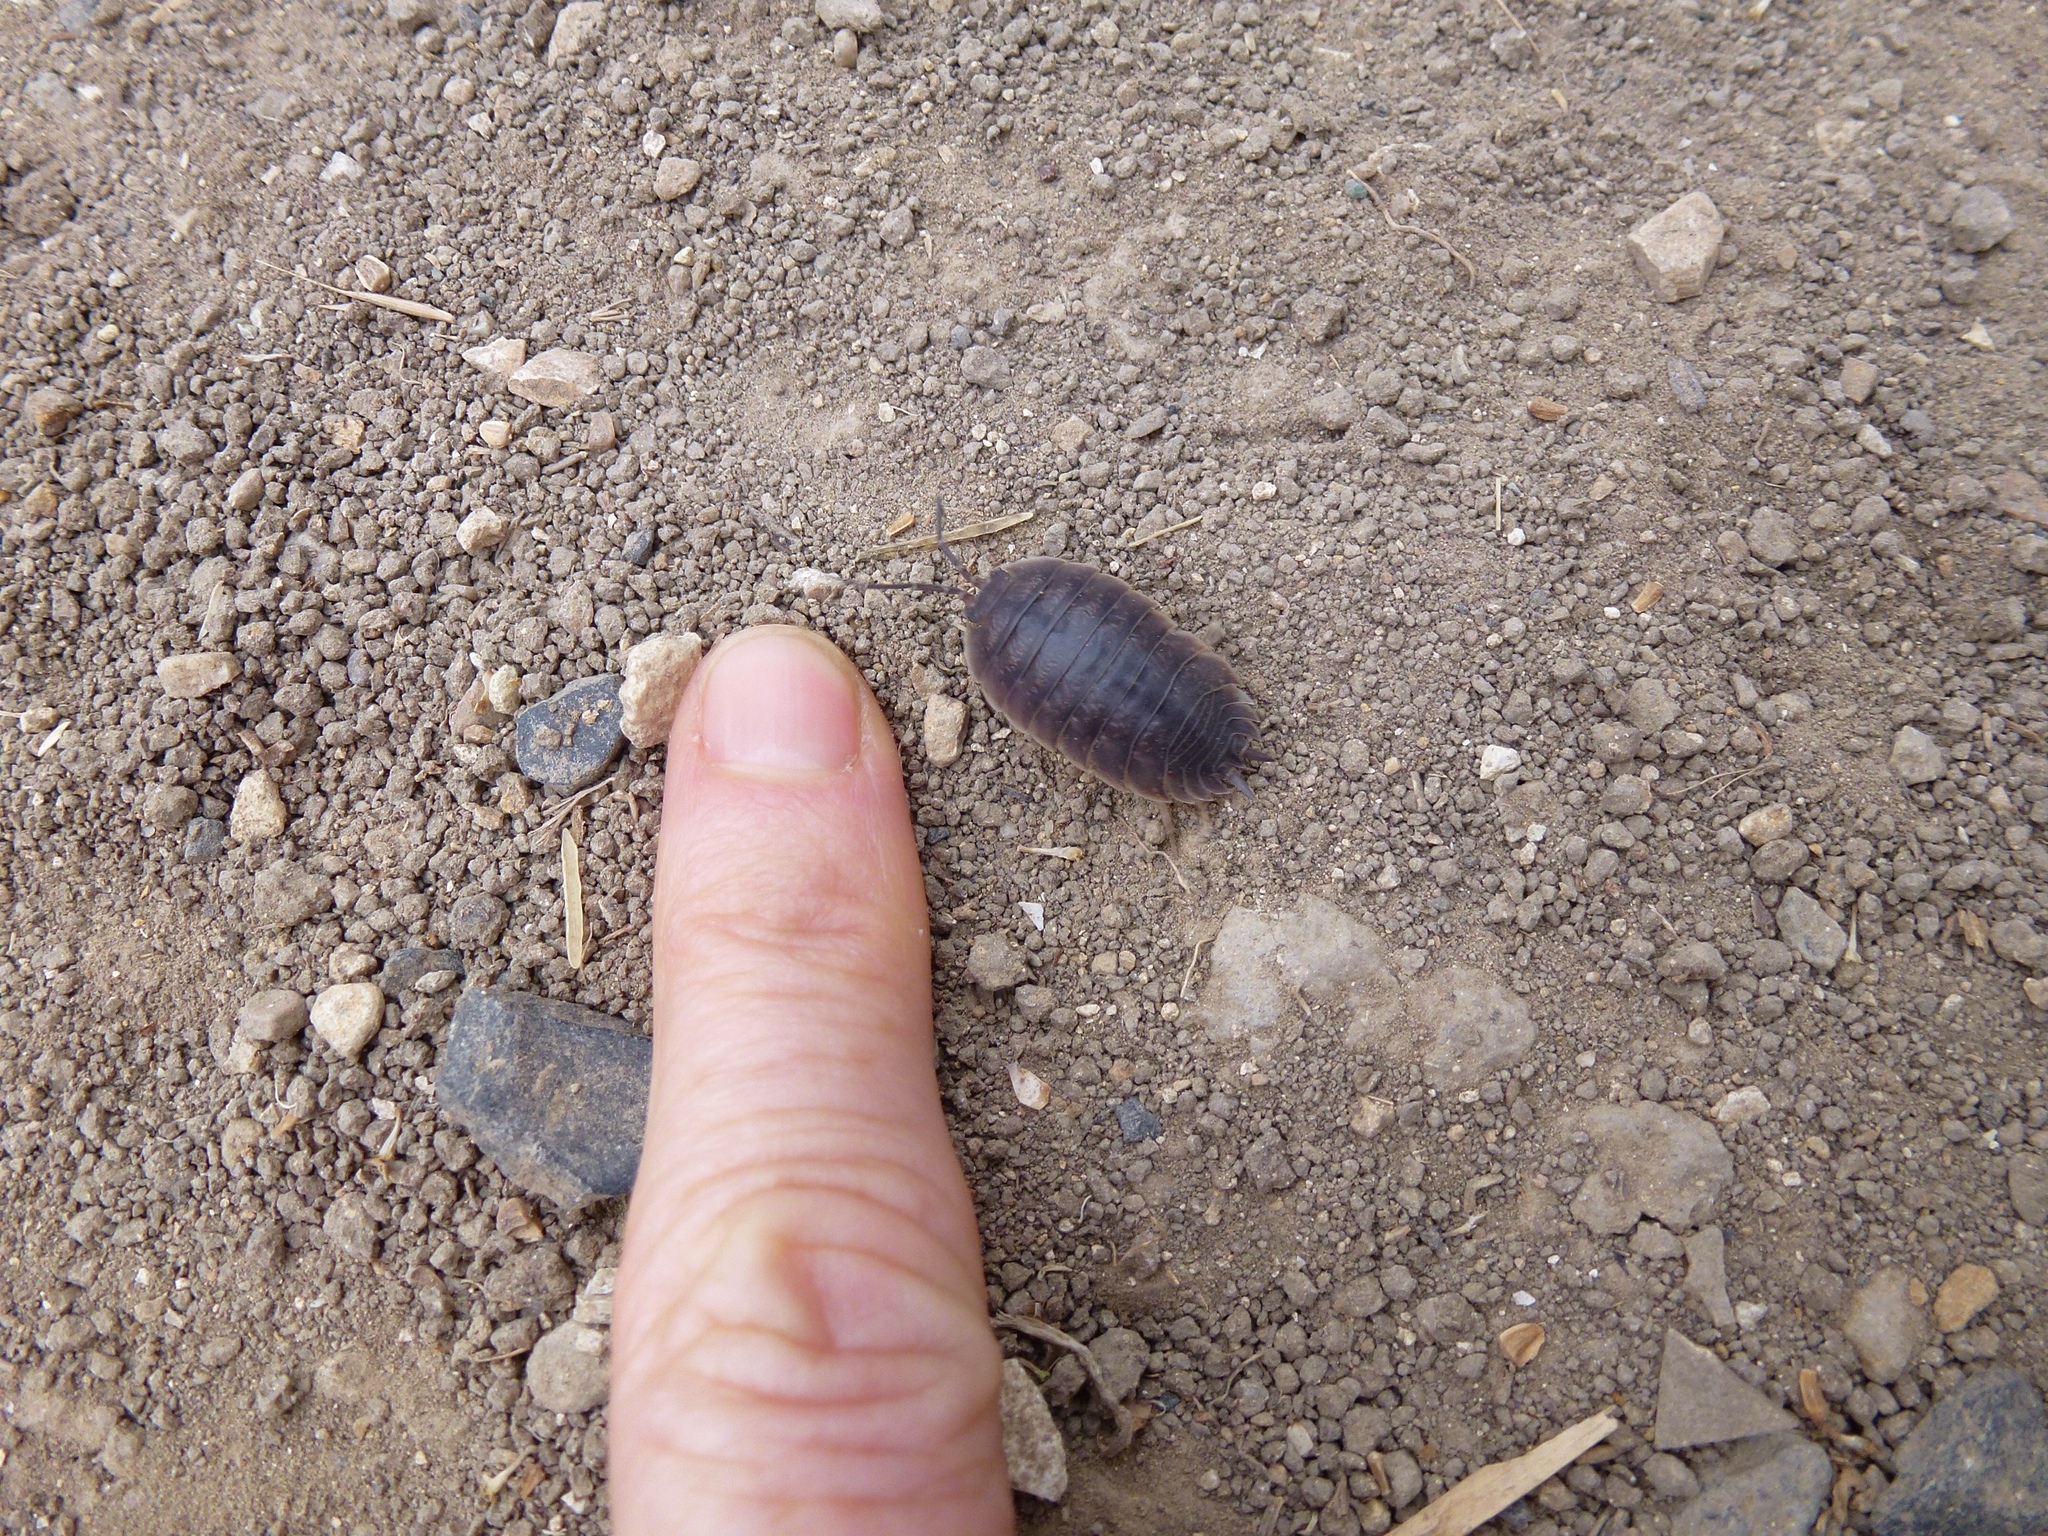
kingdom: Animalia
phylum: Arthropoda
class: Malacostraca
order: Isopoda
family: Porcellionidae
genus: Porcellio
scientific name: Porcellio laevis
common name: Swift woodlouse
